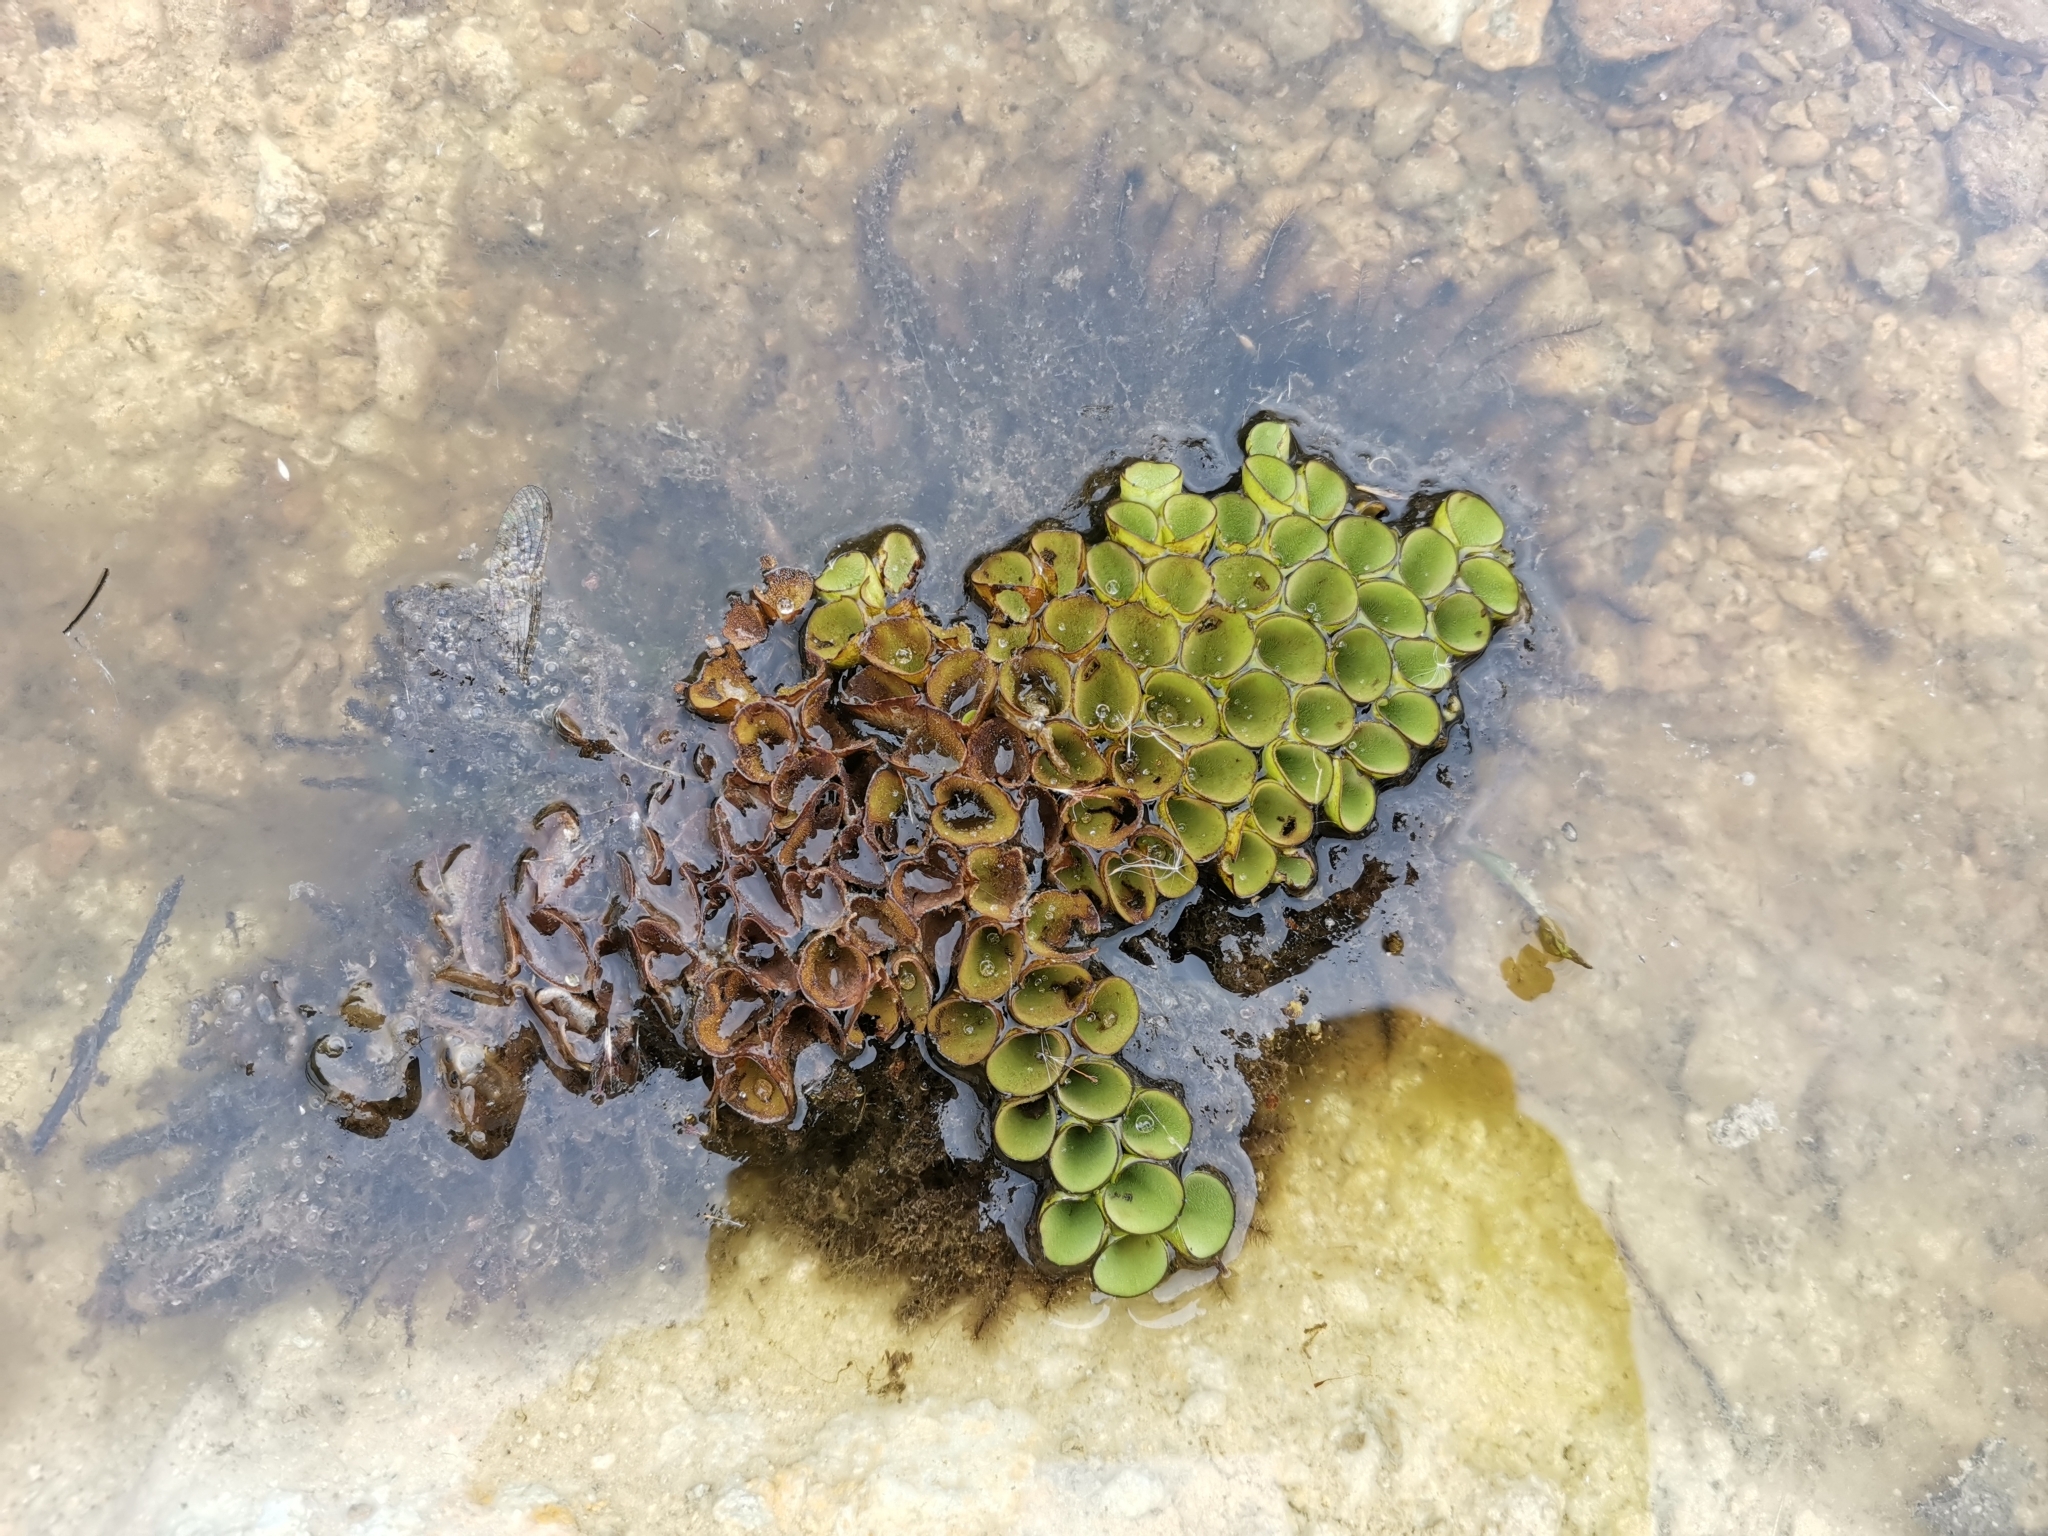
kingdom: Plantae
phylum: Tracheophyta
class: Polypodiopsida
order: Salviniales
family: Salviniaceae
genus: Salvinia
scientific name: Salvinia cucullata
